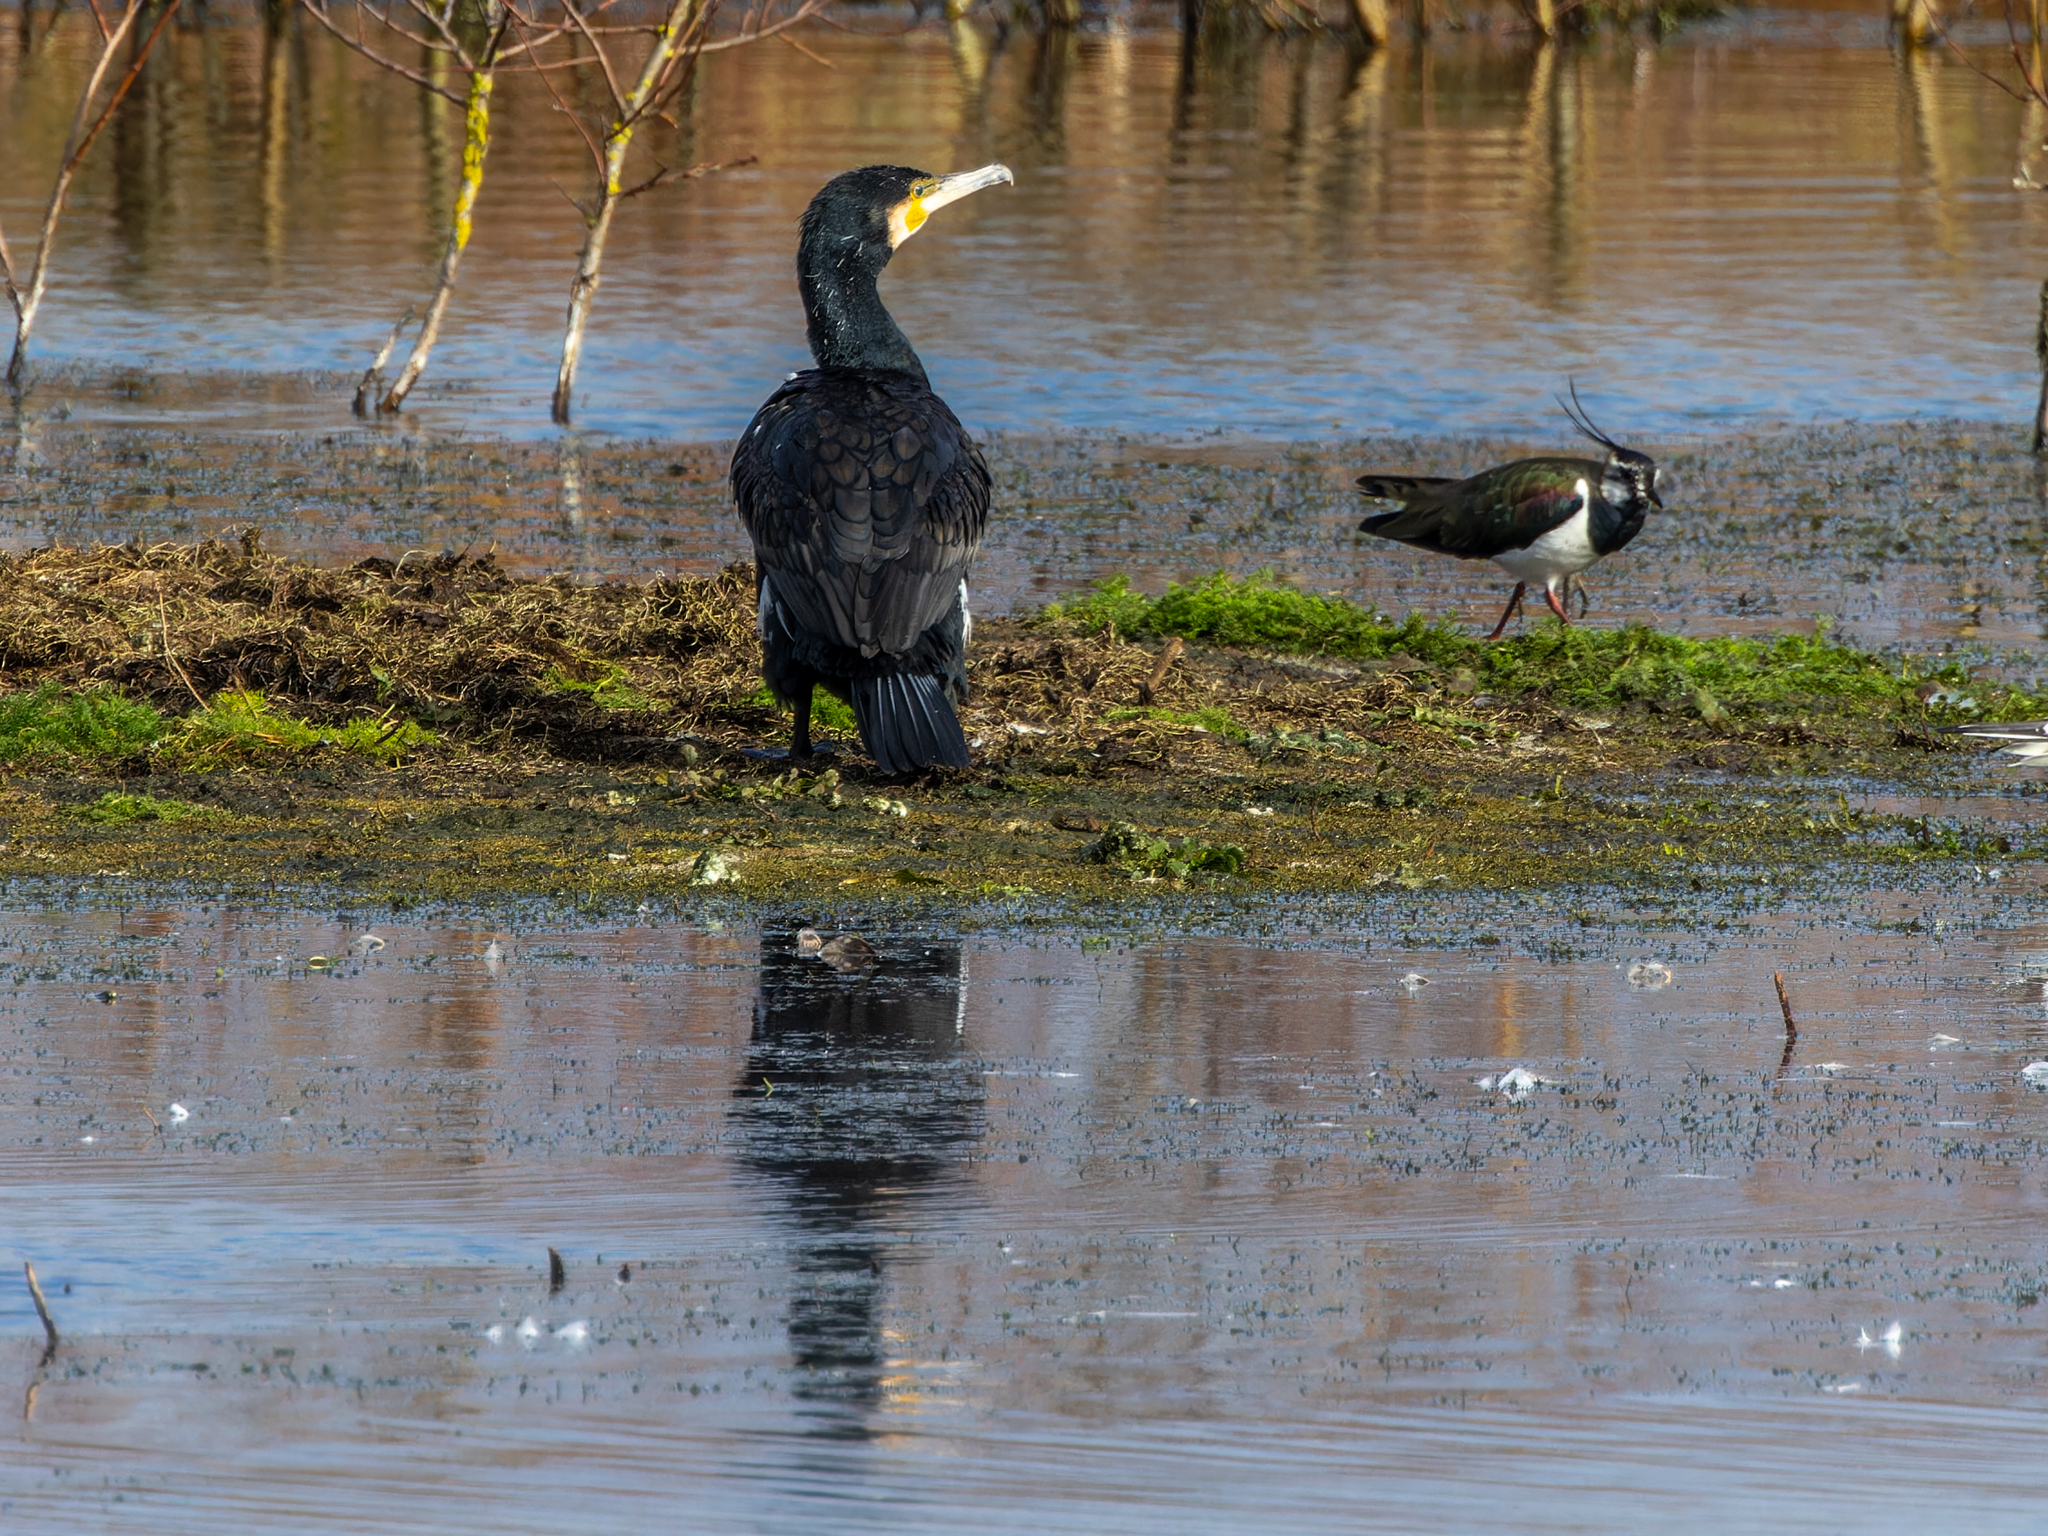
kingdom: Animalia
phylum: Chordata
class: Aves
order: Suliformes
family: Phalacrocoracidae
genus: Phalacrocorax
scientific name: Phalacrocorax carbo
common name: Great cormorant
